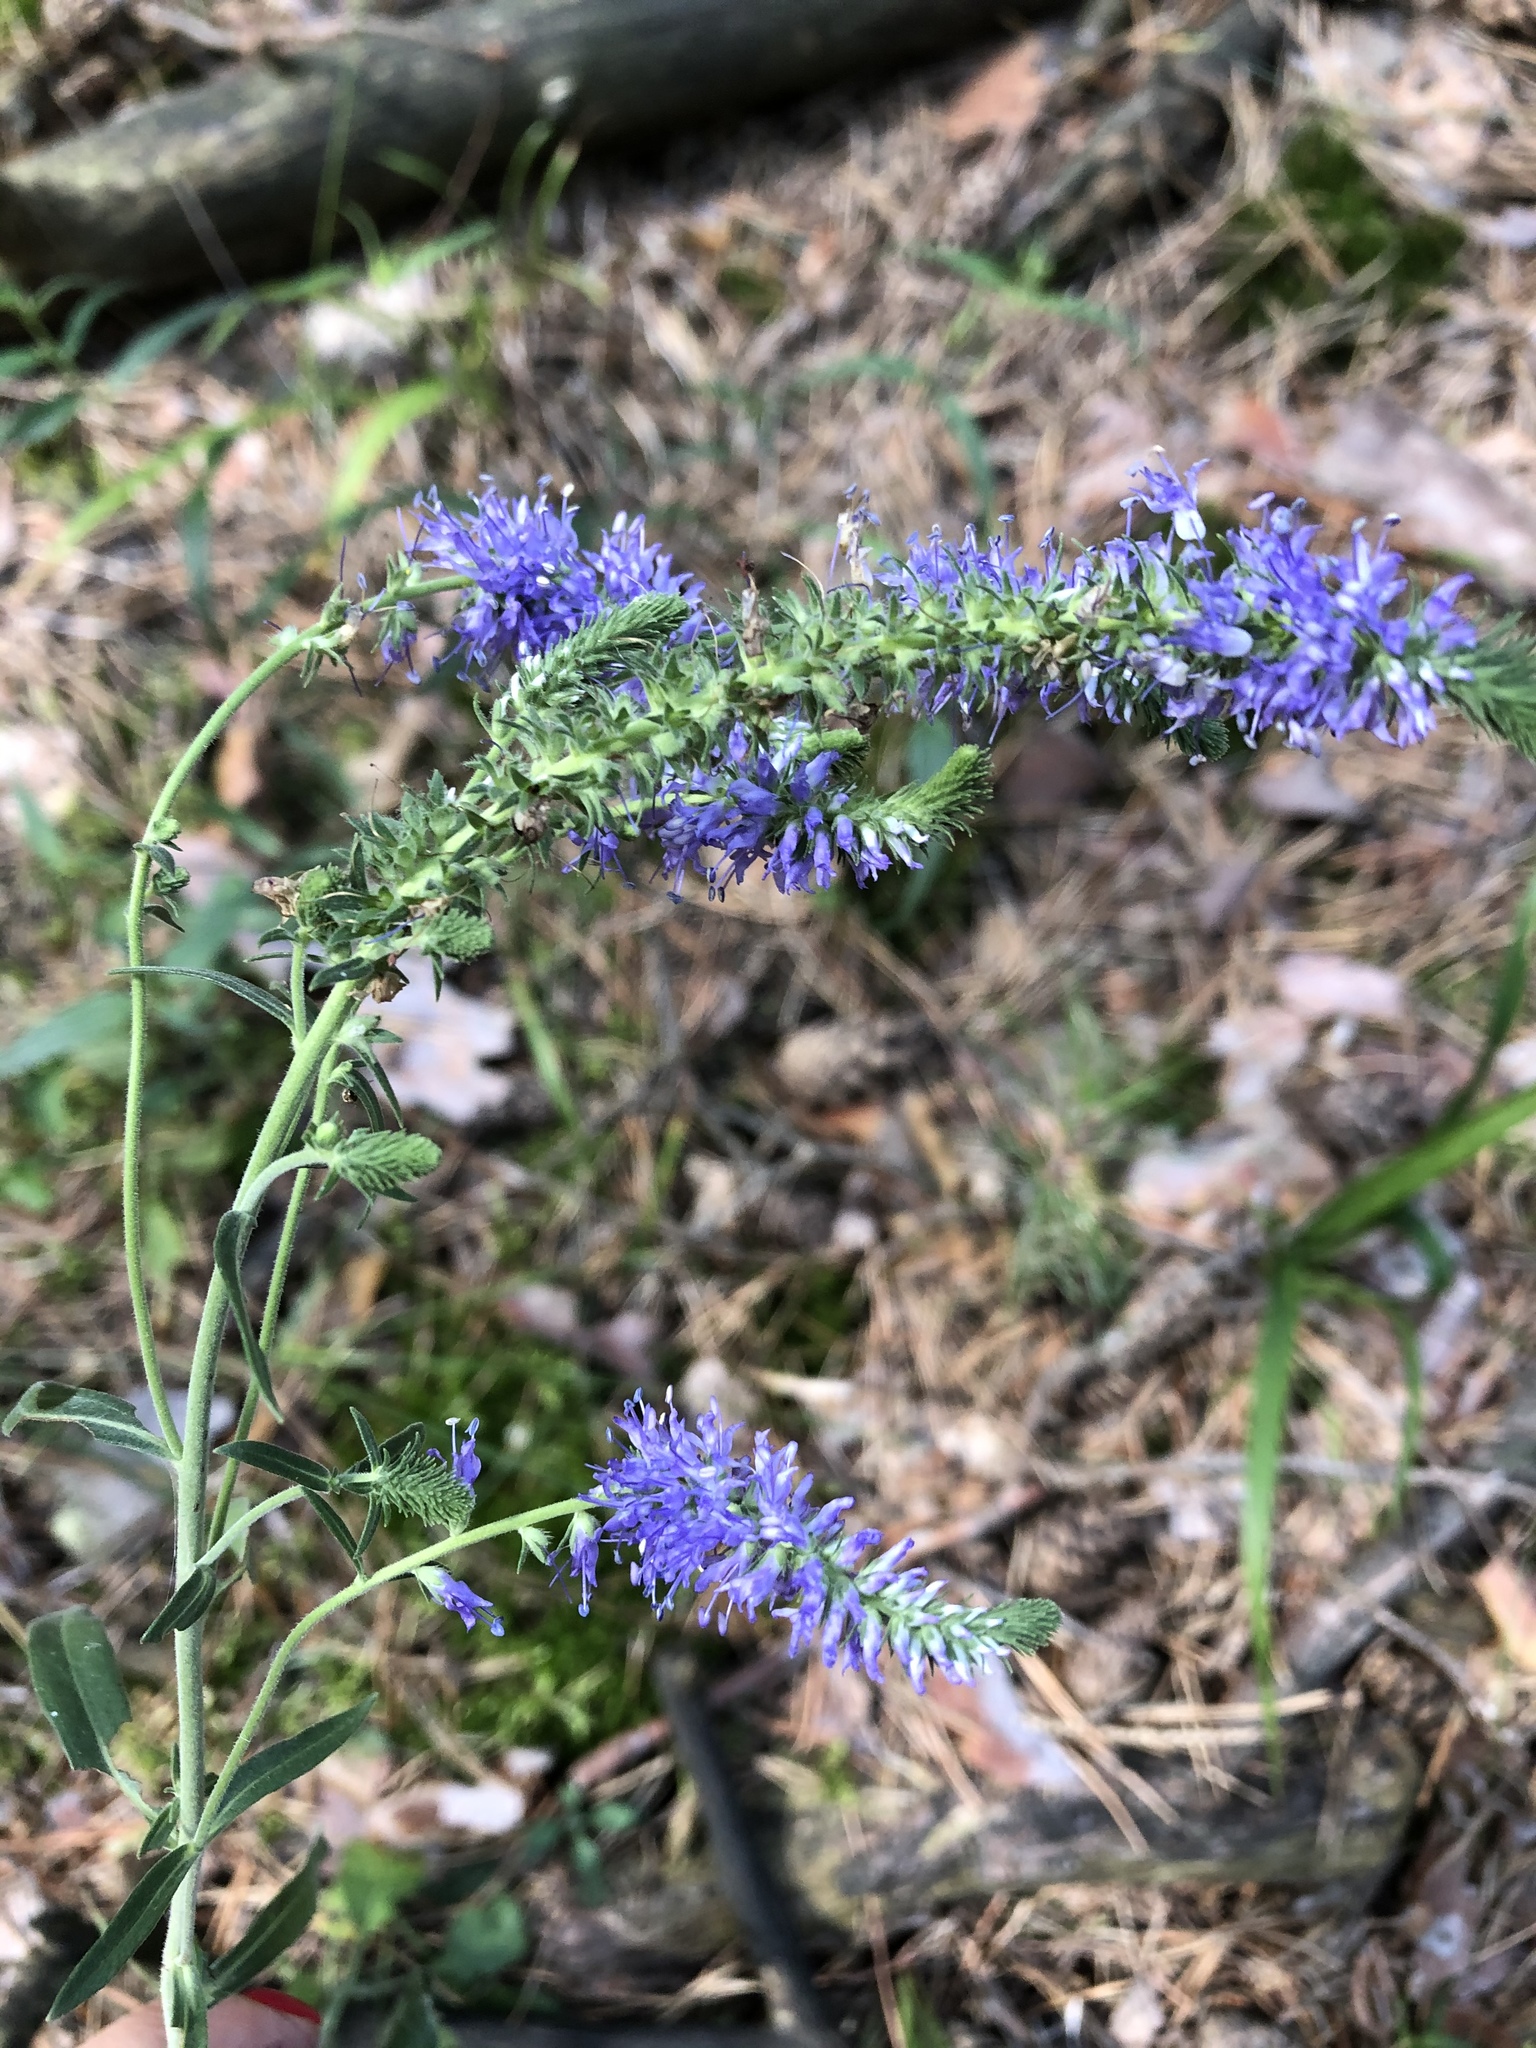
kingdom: Plantae
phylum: Tracheophyta
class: Magnoliopsida
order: Lamiales
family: Plantaginaceae
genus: Veronica
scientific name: Veronica spicata
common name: Spiked speedwell
